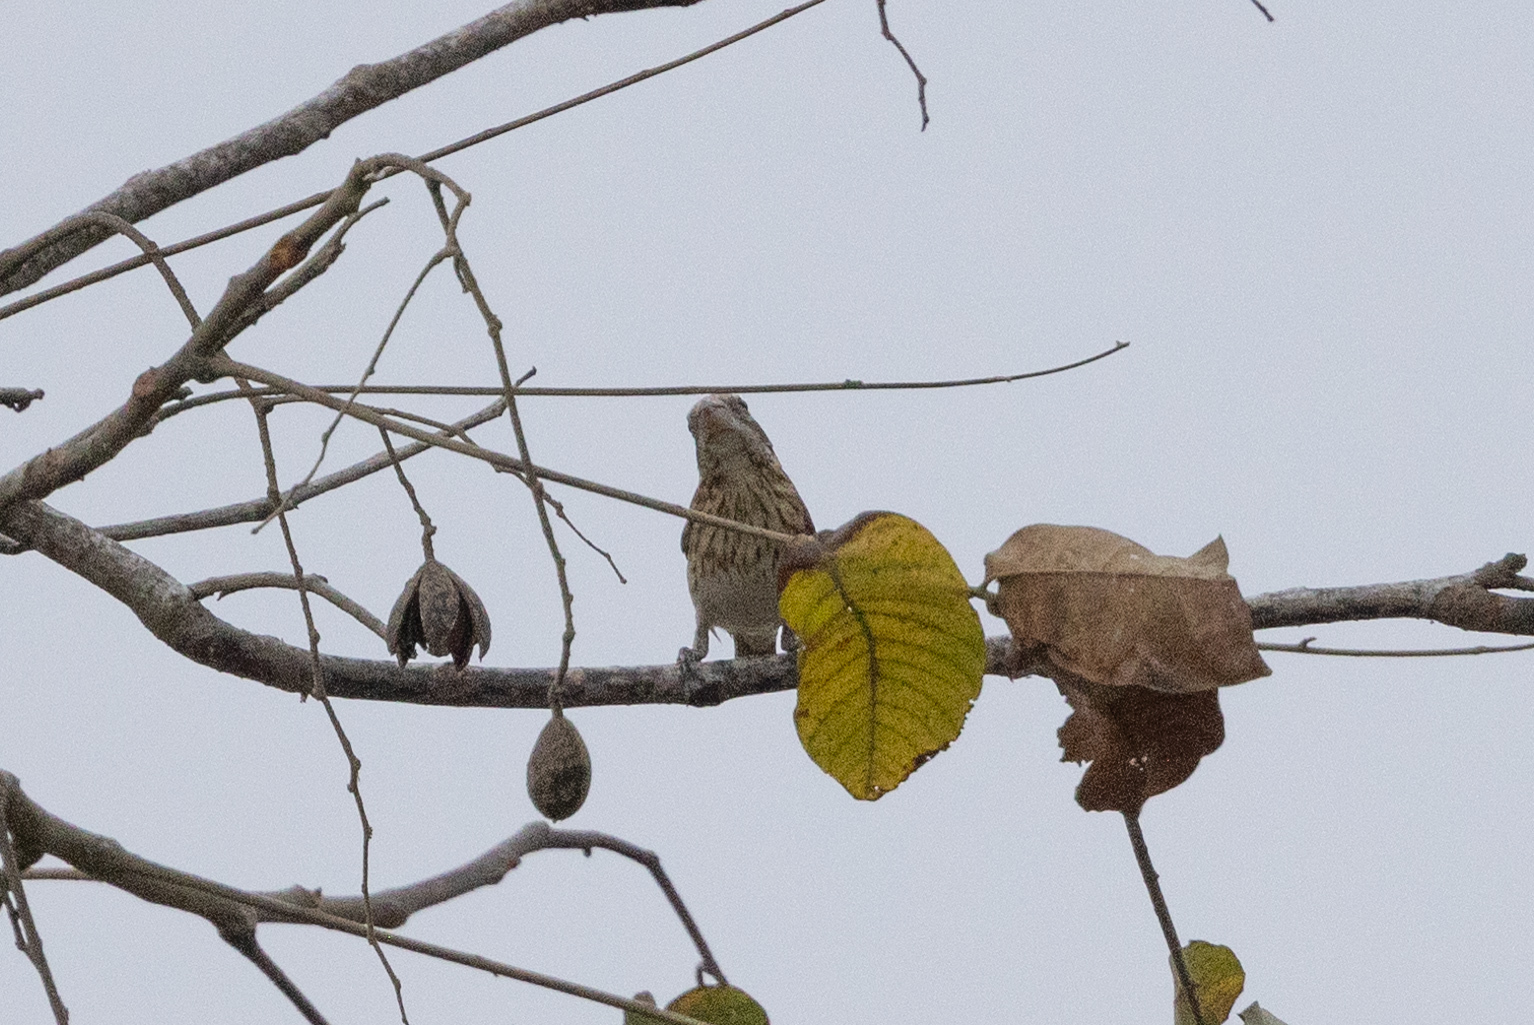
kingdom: Animalia
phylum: Chordata
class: Aves
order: Passeriformes
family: Cardinalidae
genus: Pheucticus
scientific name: Pheucticus ludovicianus
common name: Rose-breasted grosbeak
